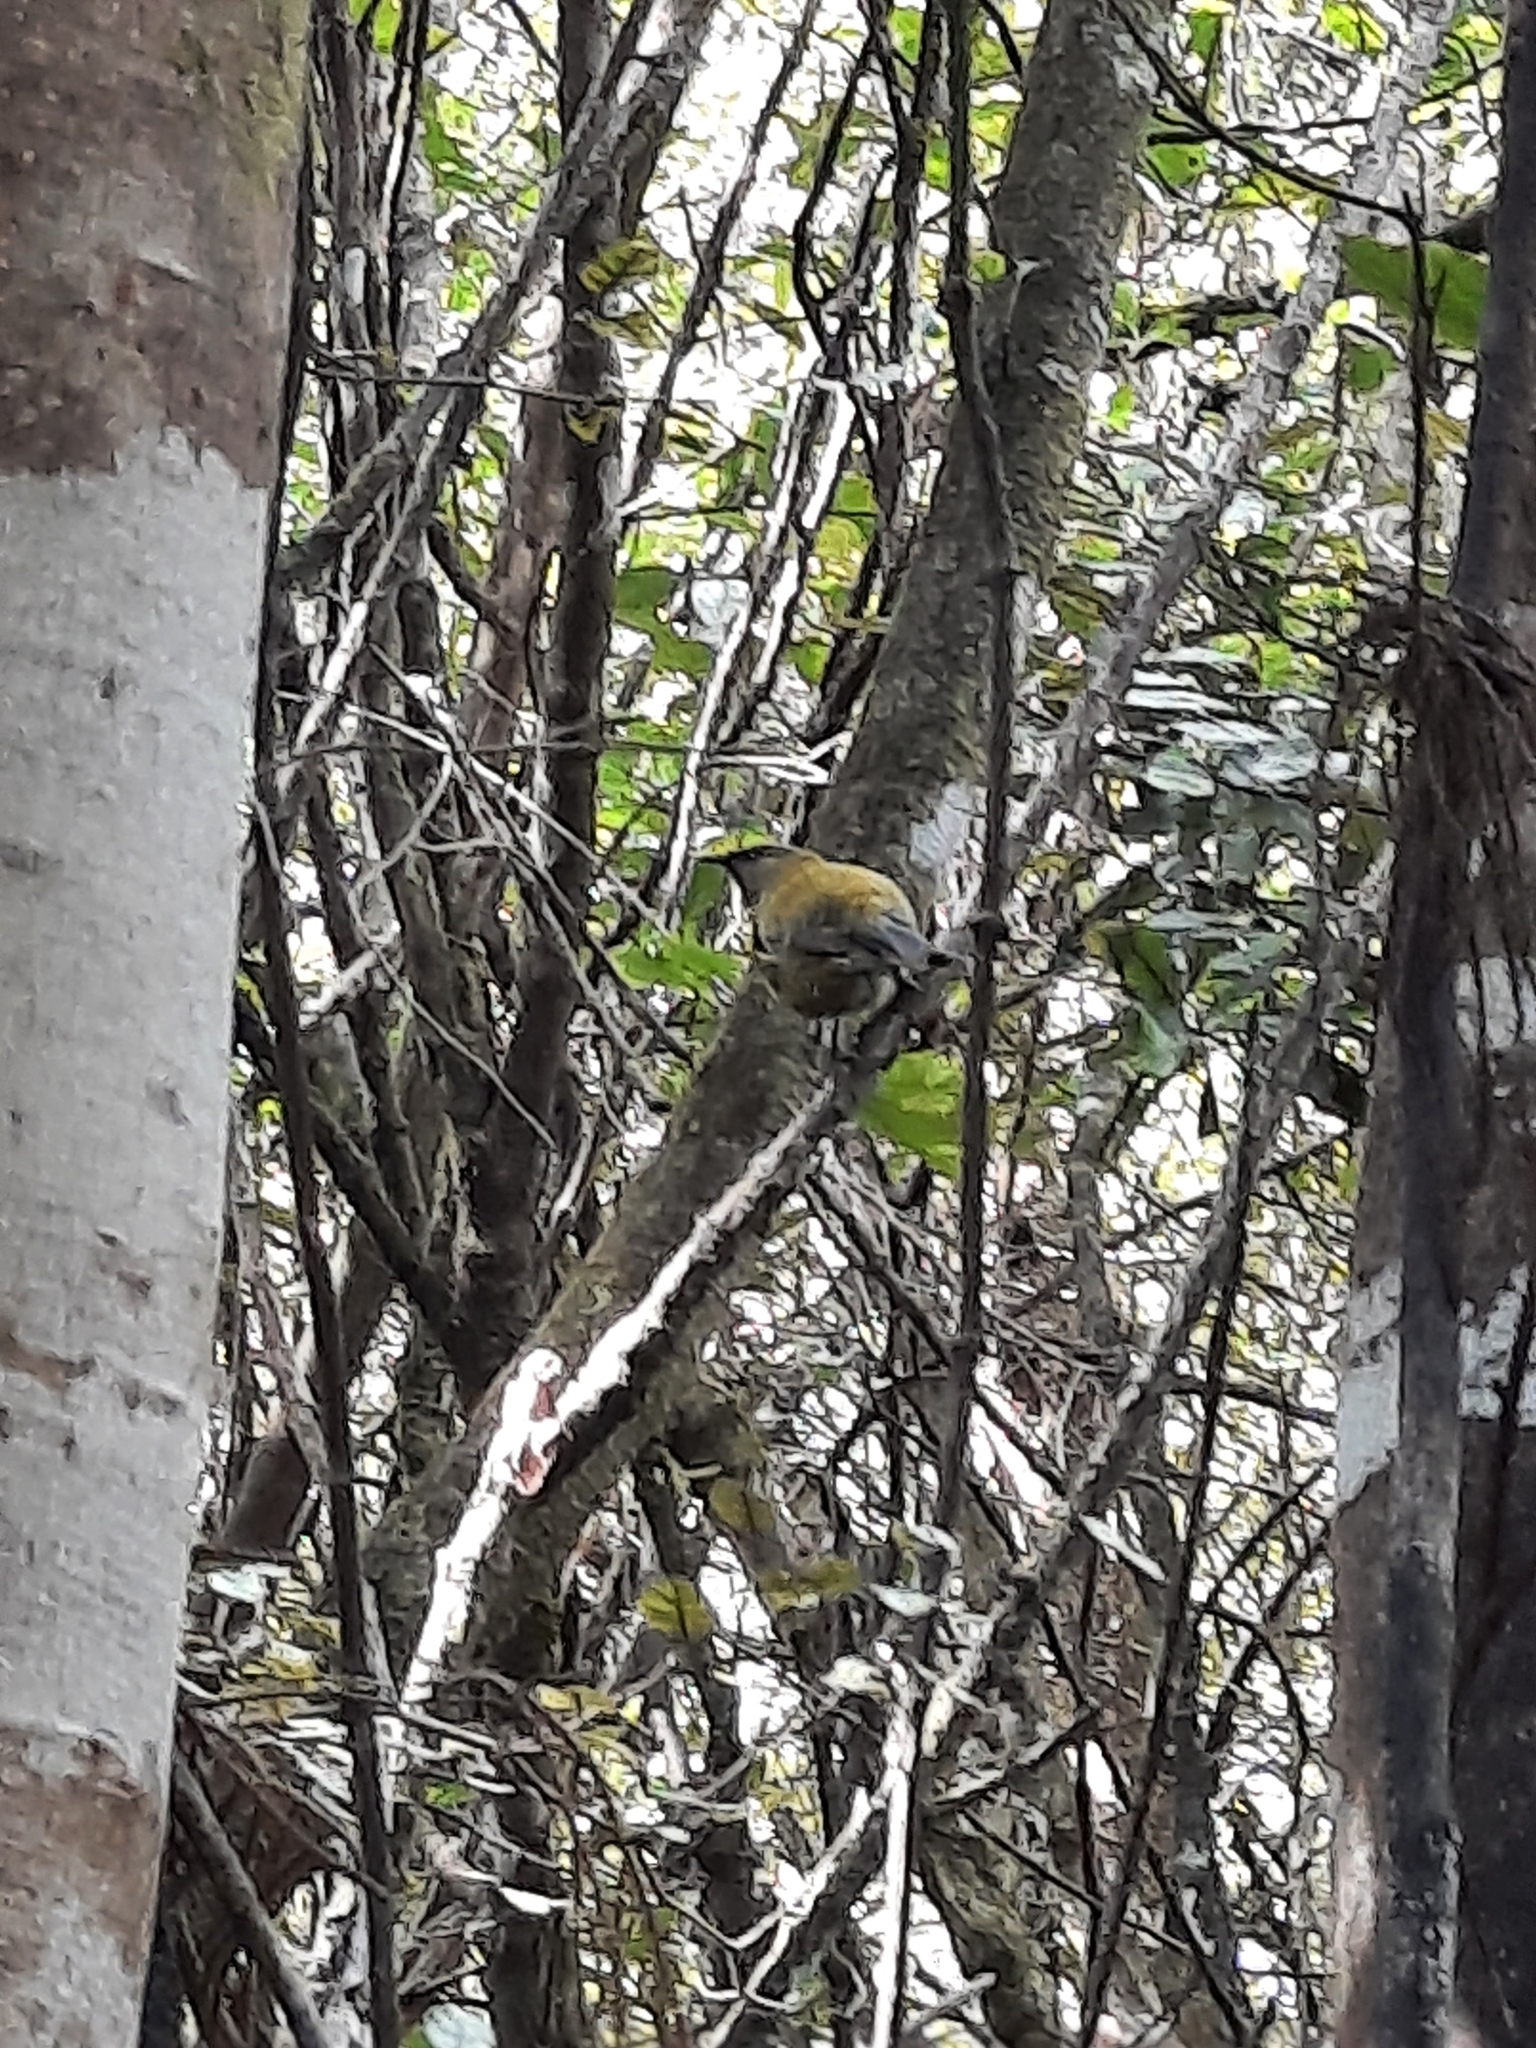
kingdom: Animalia
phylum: Chordata
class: Aves
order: Passeriformes
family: Meliphagidae
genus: Anthornis
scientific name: Anthornis melanura
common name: New zealand bellbird
